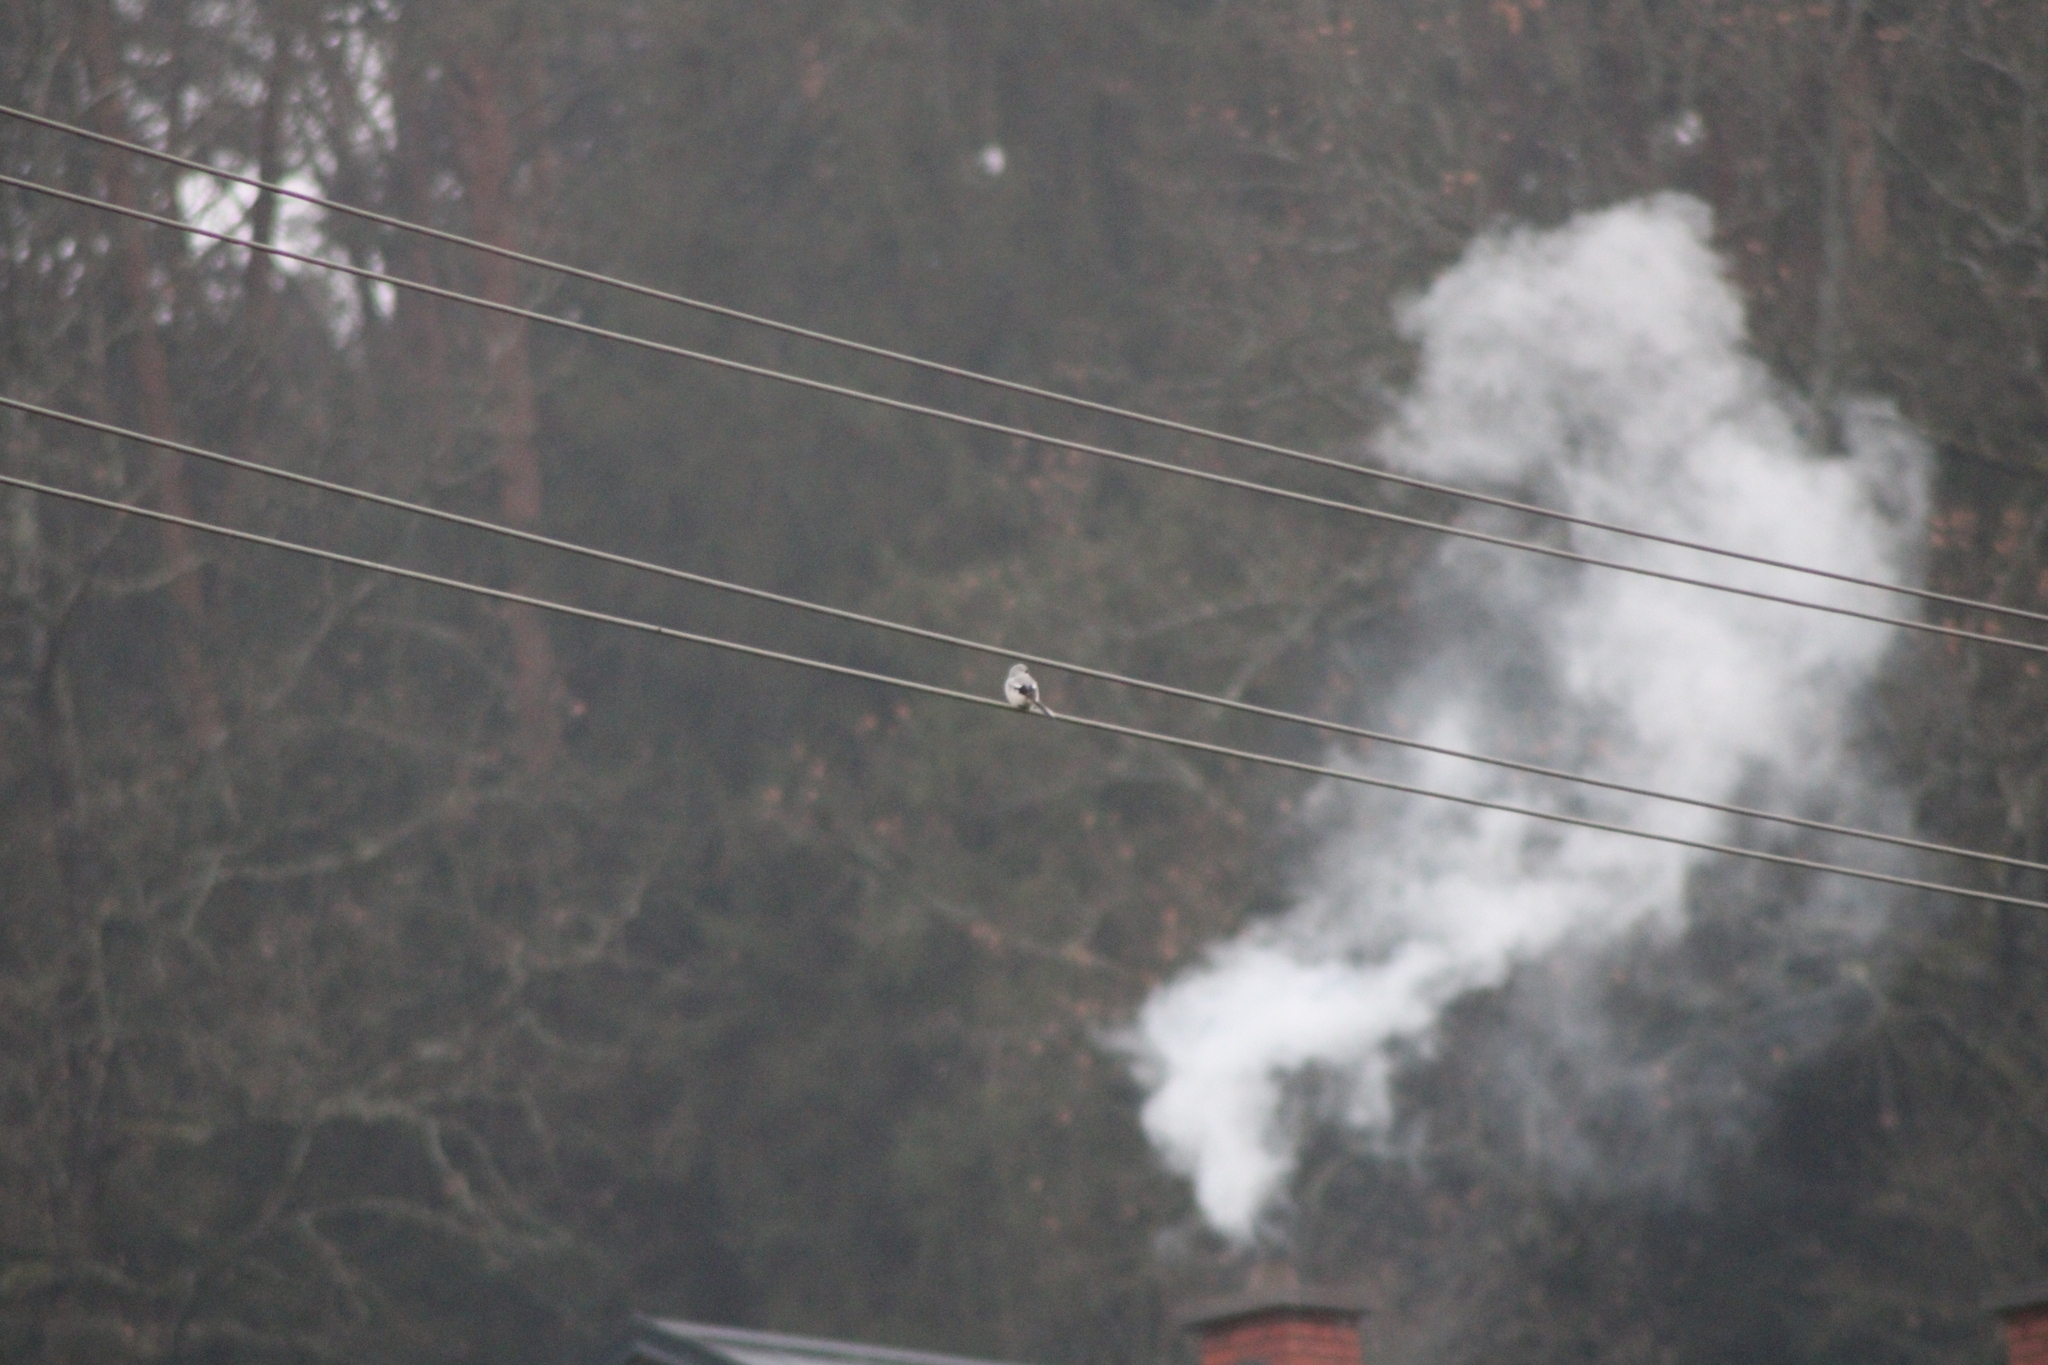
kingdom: Animalia
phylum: Chordata
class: Aves
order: Passeriformes
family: Laniidae
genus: Lanius
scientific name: Lanius excubitor
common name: Great grey shrike
